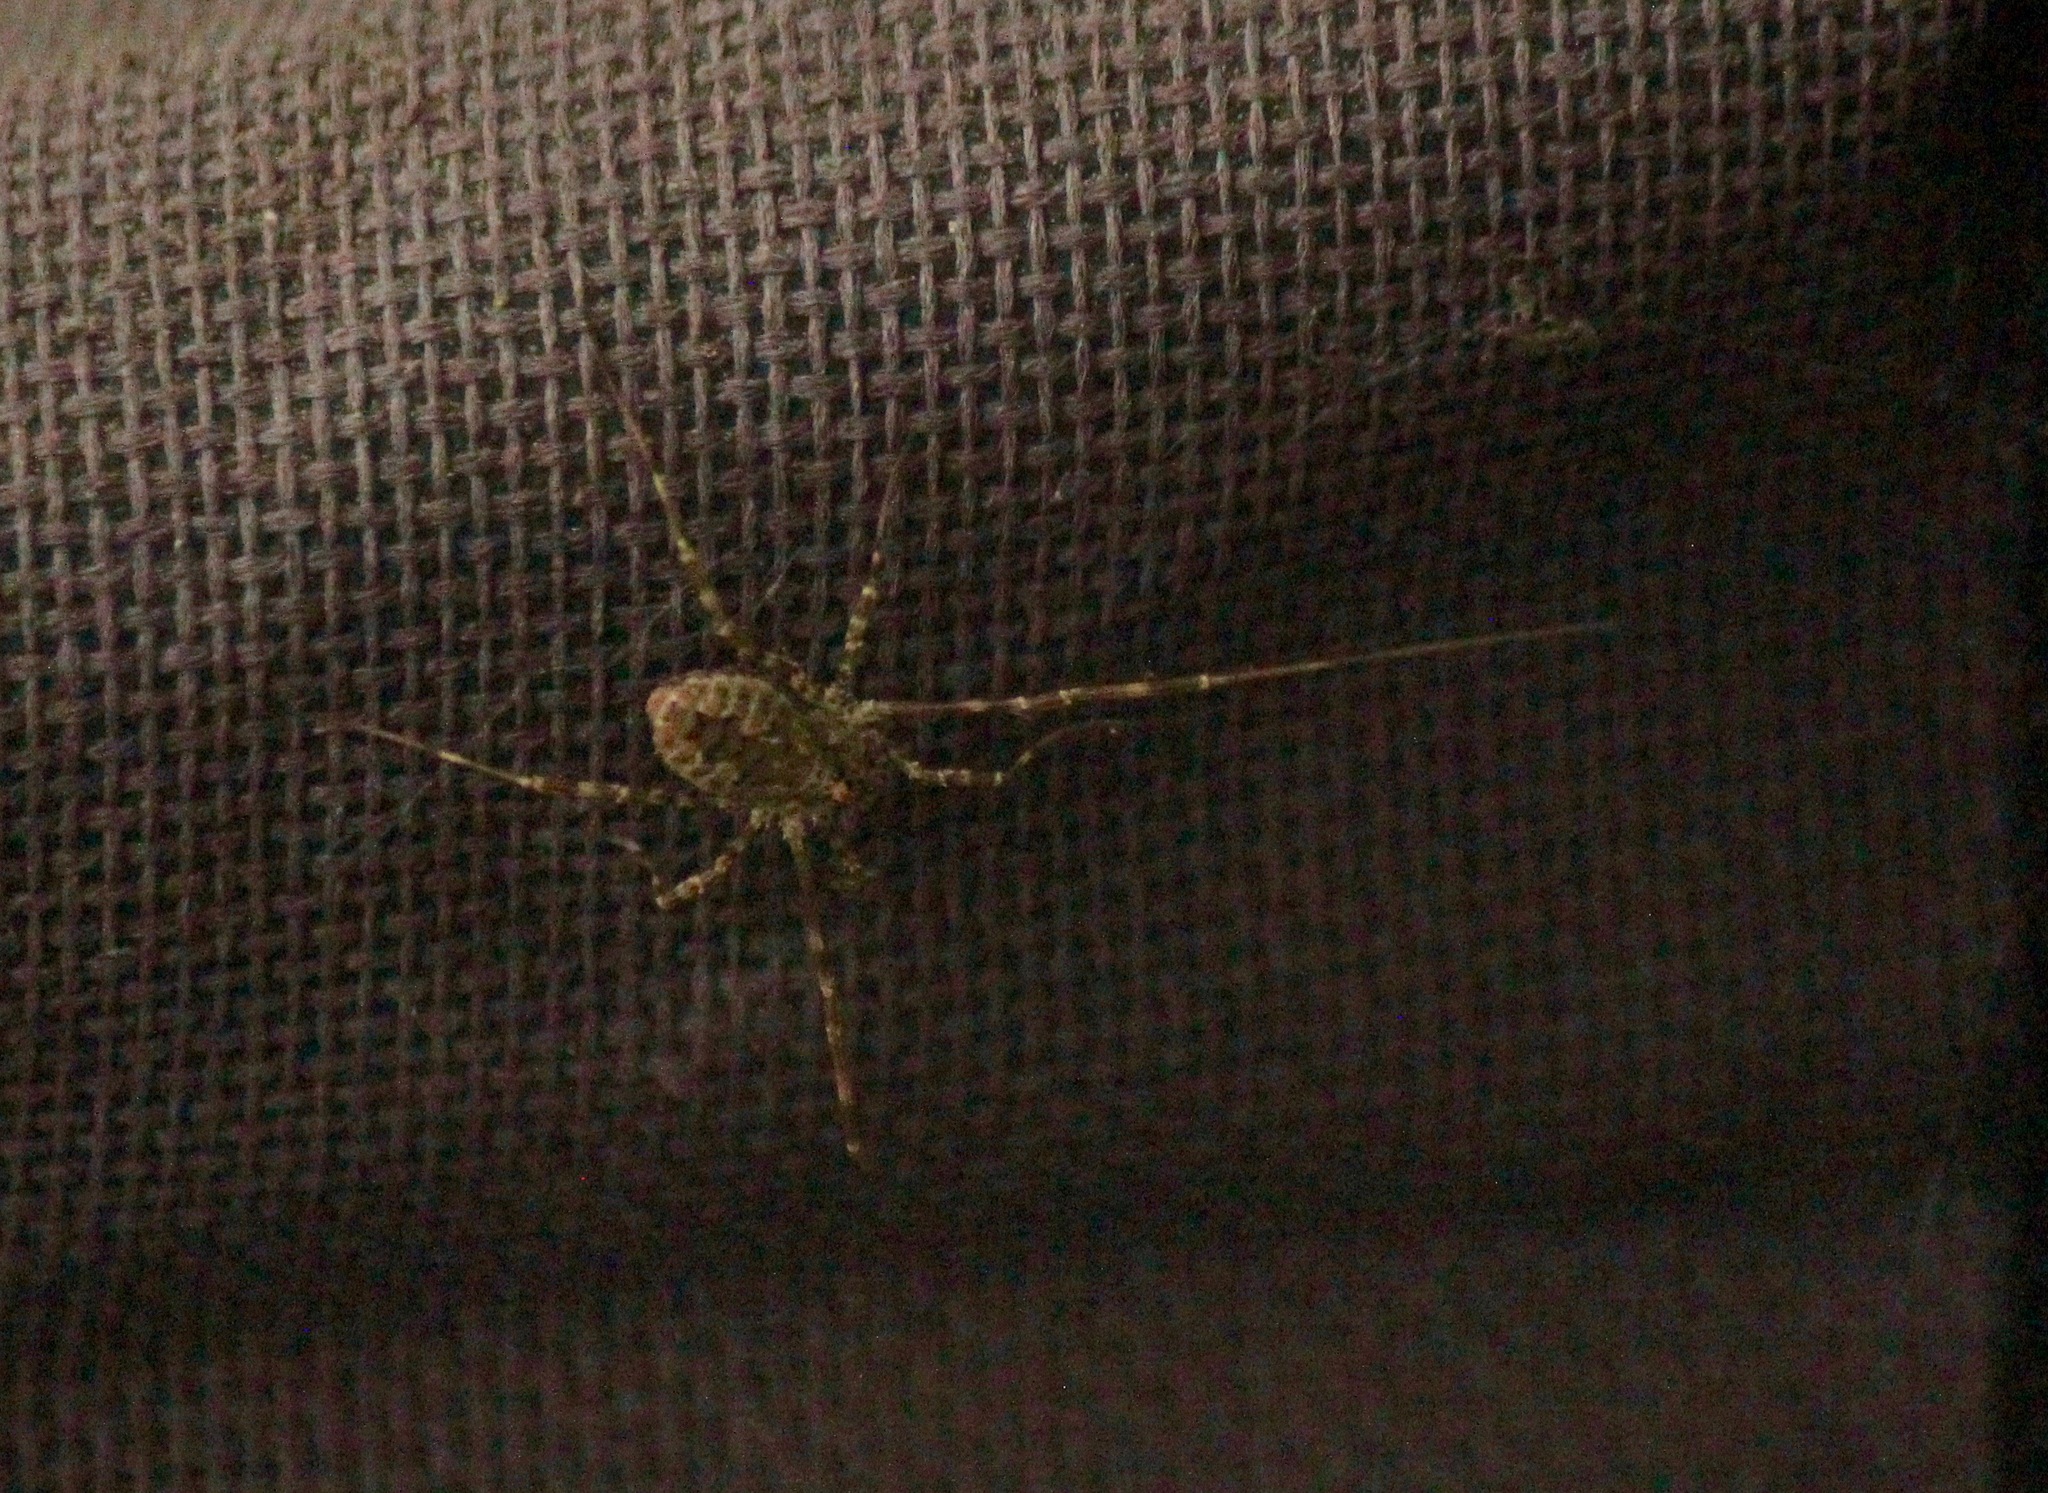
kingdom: Animalia
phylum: Arthropoda
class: Arachnida
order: Opiliones
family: Phalangiidae
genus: Odiellus
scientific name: Odiellus pictus
